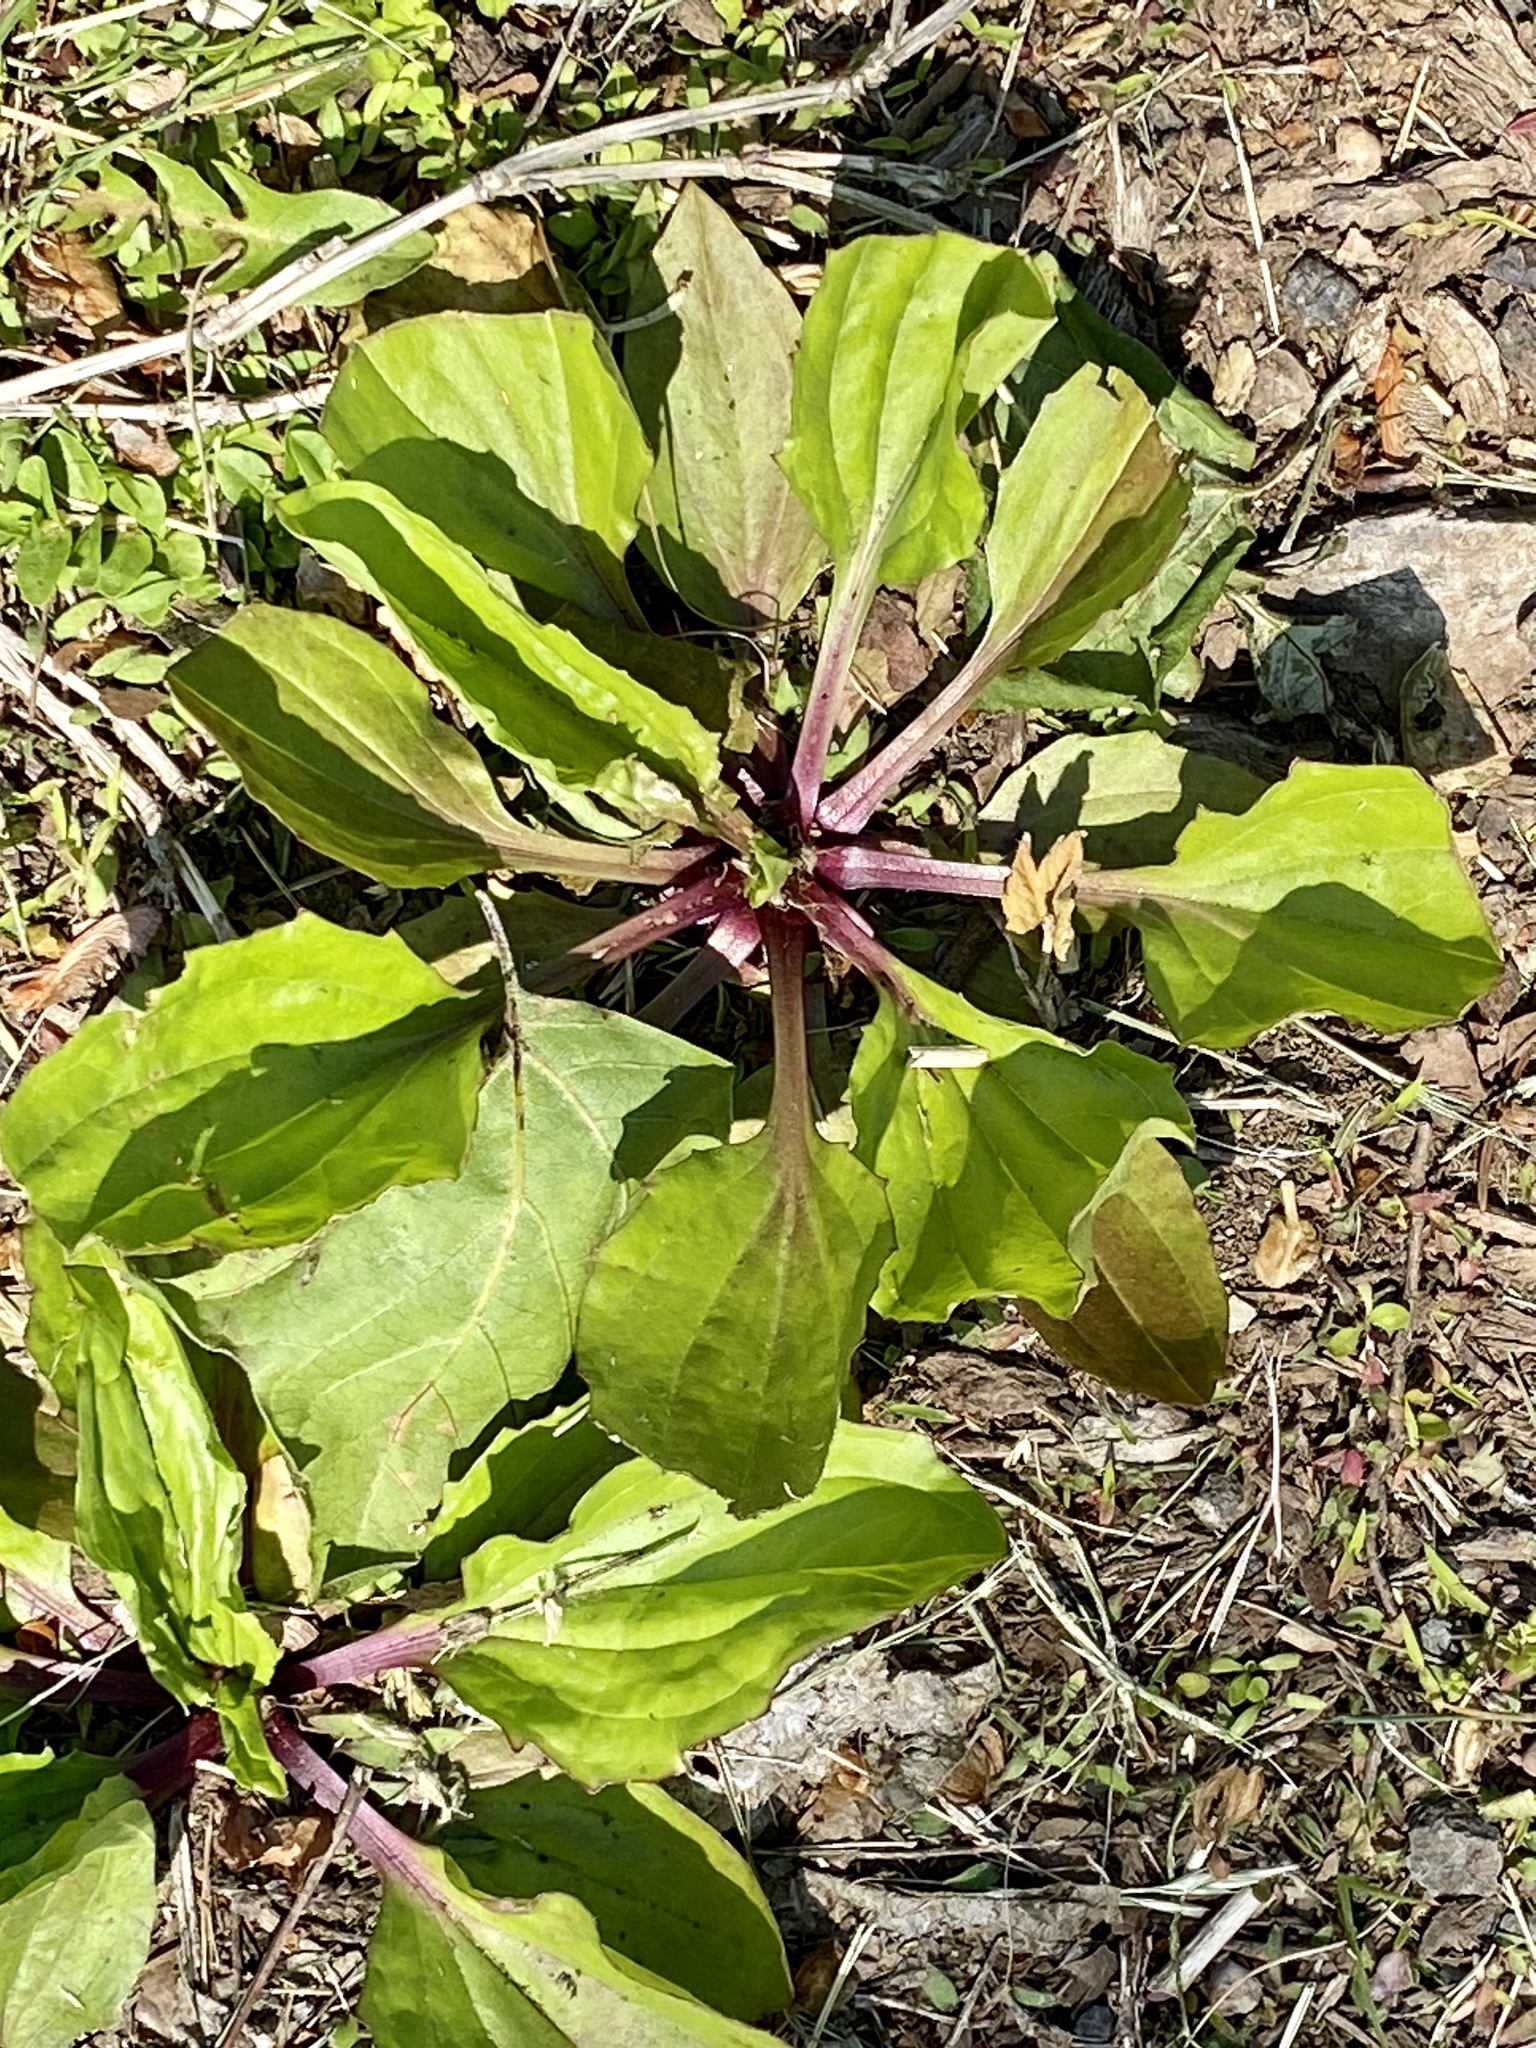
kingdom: Plantae
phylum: Tracheophyta
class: Magnoliopsida
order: Lamiales
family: Plantaginaceae
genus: Plantago
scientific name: Plantago rugelii
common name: American plantain
